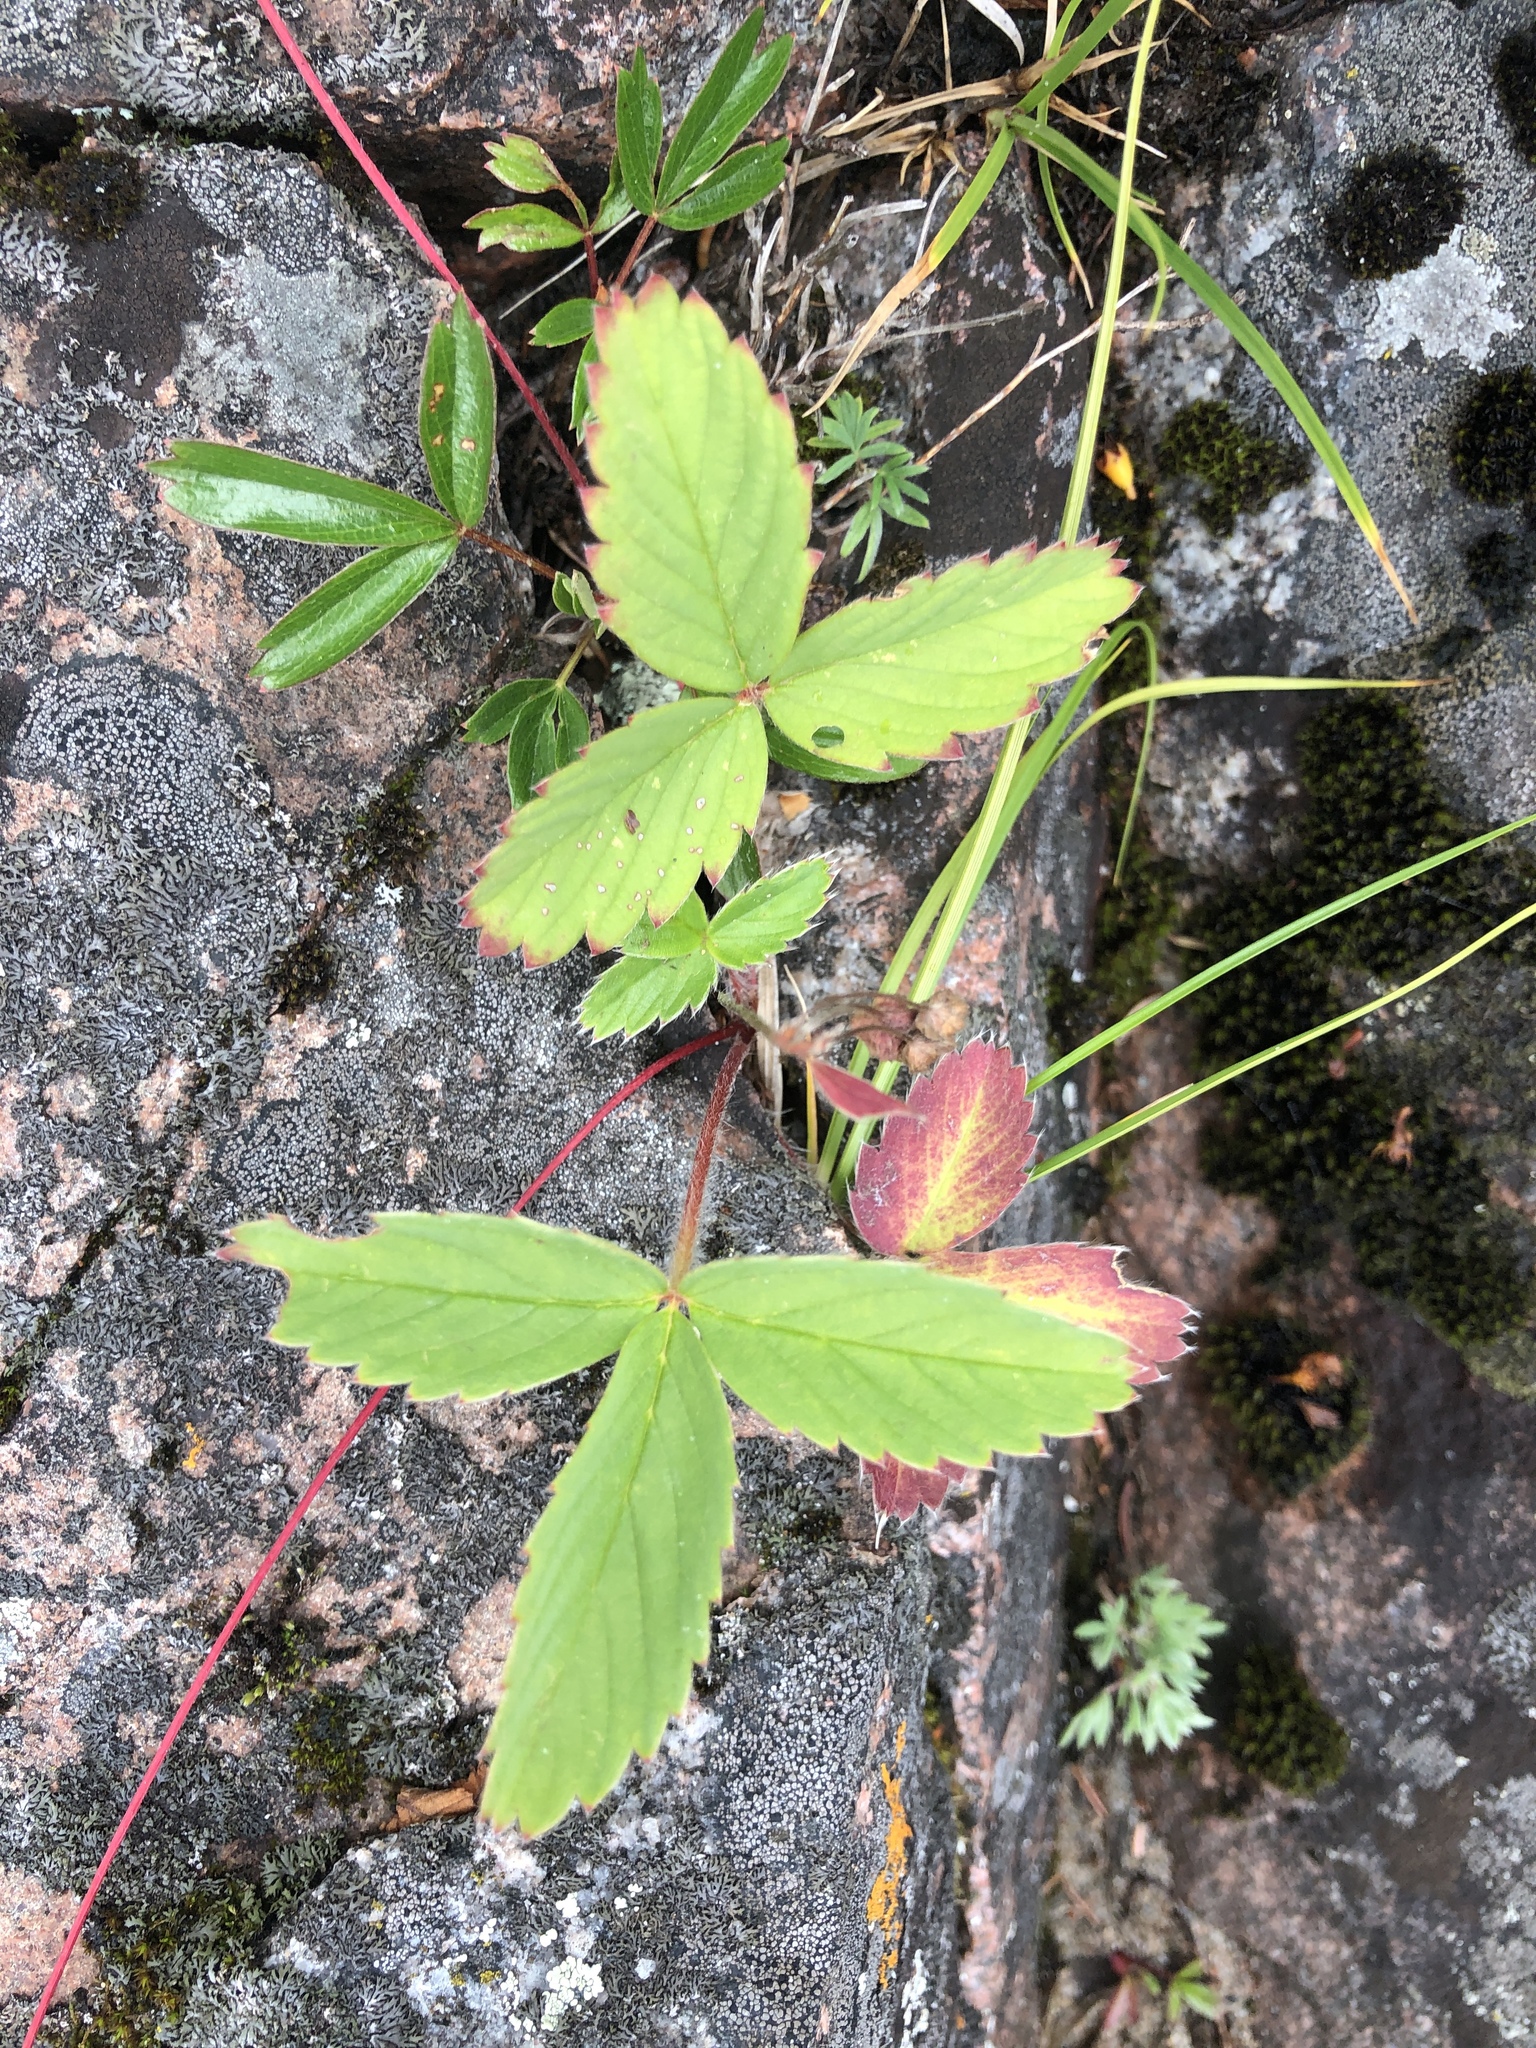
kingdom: Plantae
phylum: Tracheophyta
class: Magnoliopsida
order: Rosales
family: Rosaceae
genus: Fragaria
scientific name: Fragaria virginiana
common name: Thickleaved wild strawberry
